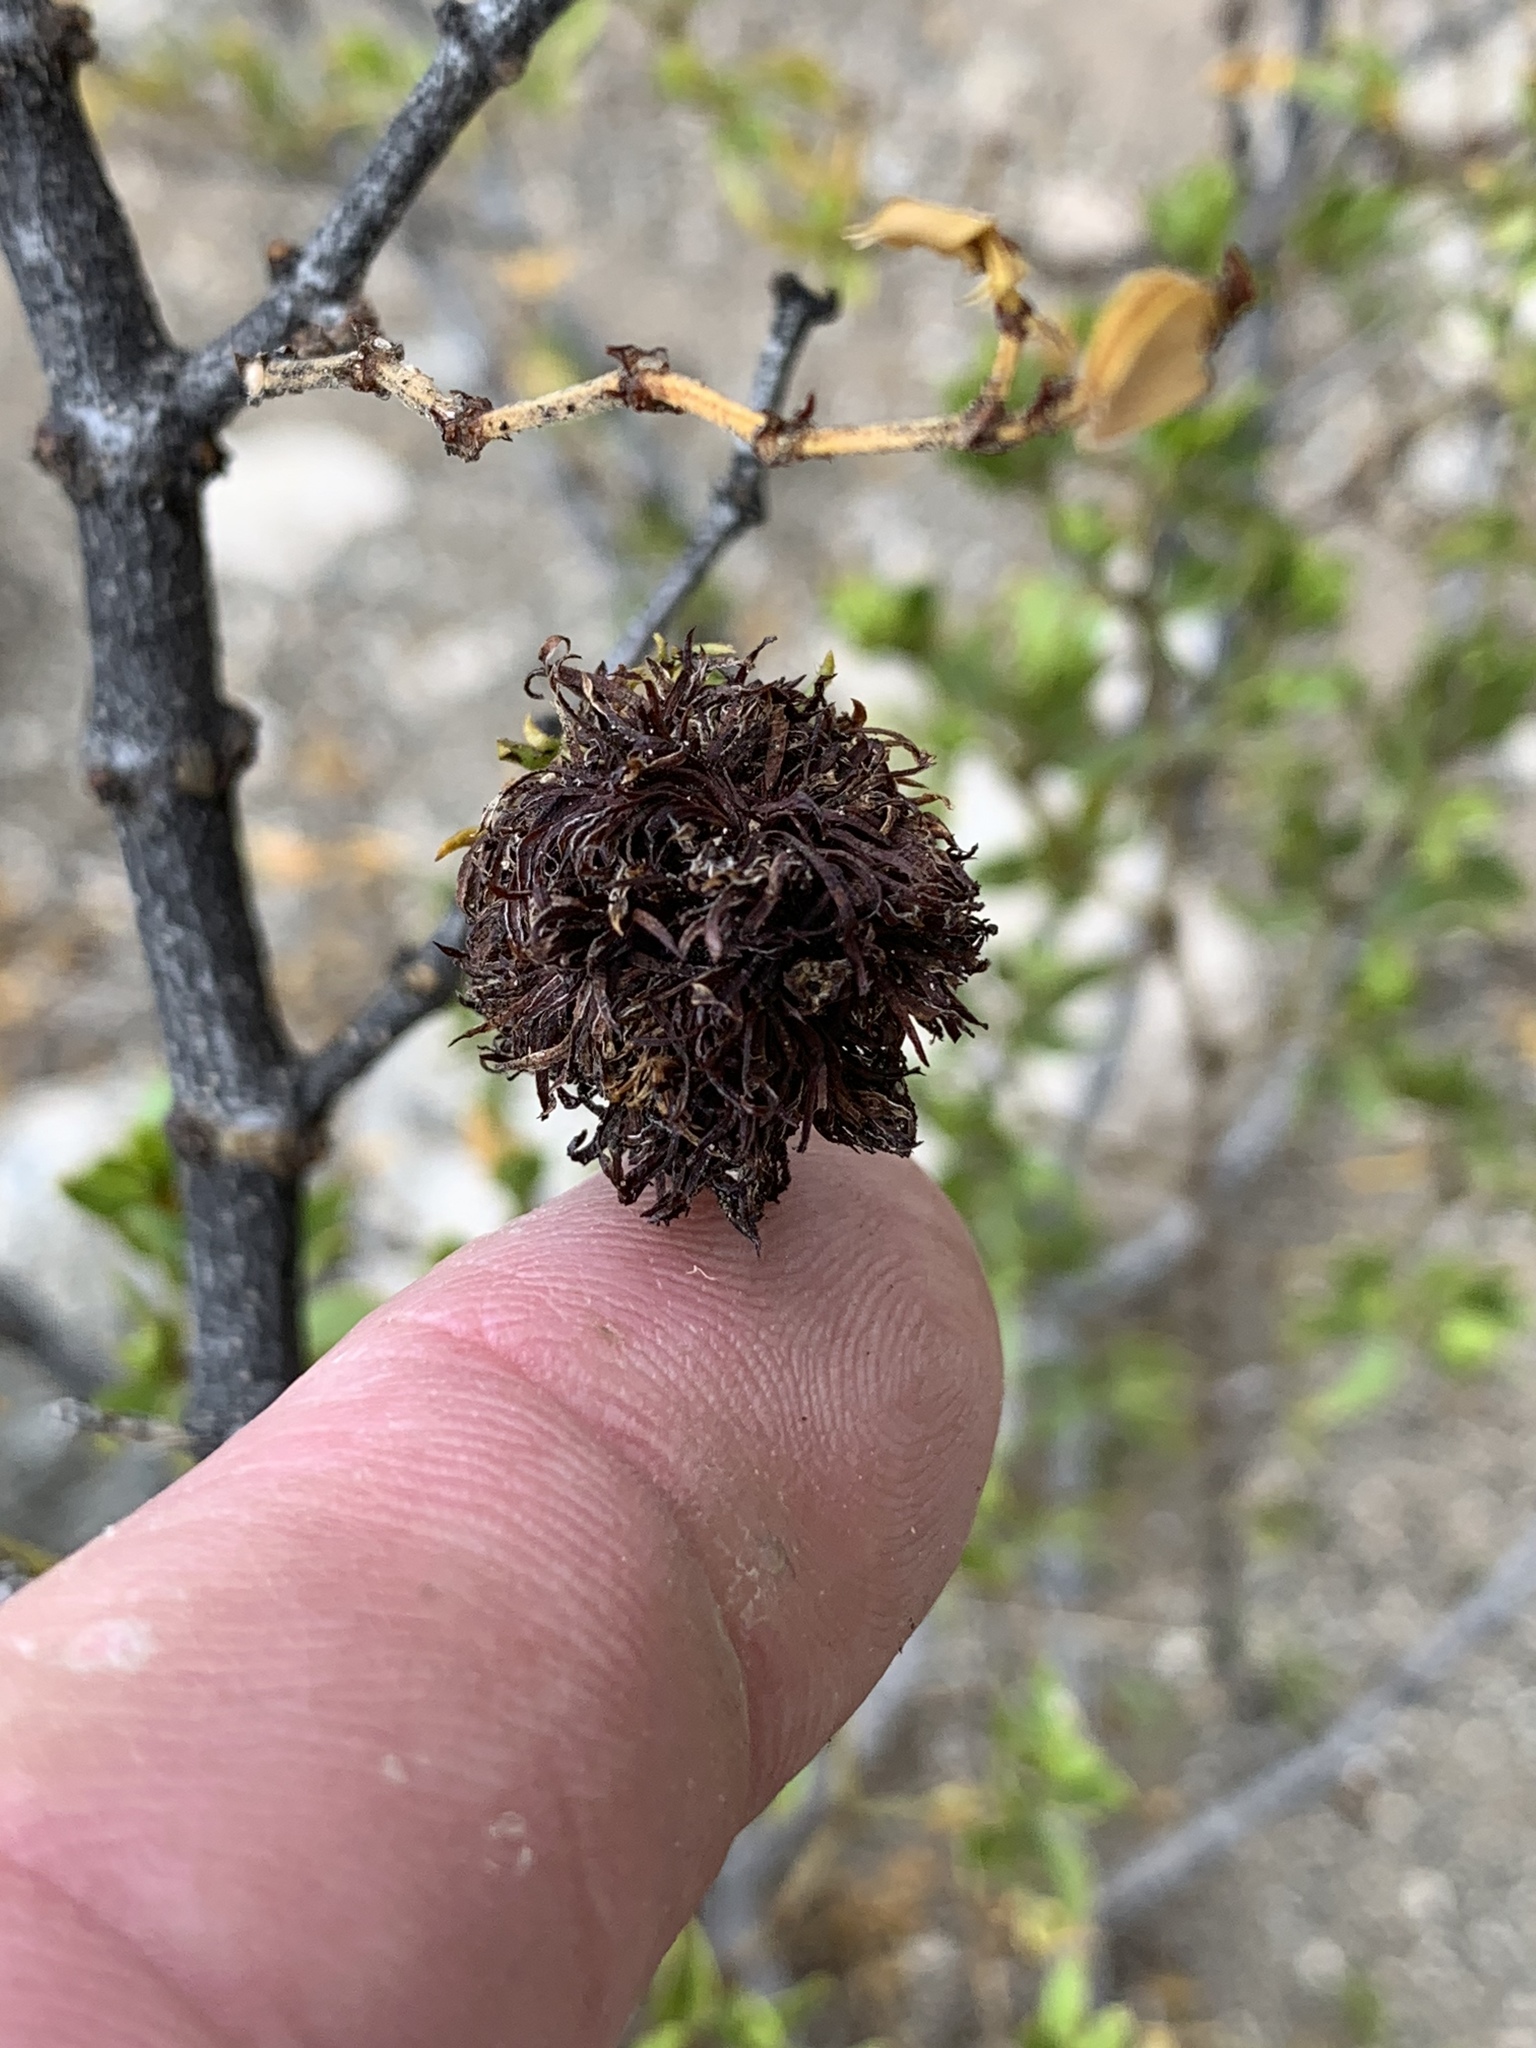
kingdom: Animalia
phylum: Arthropoda
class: Insecta
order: Diptera
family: Cecidomyiidae
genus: Asphondylia
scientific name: Asphondylia auripila
